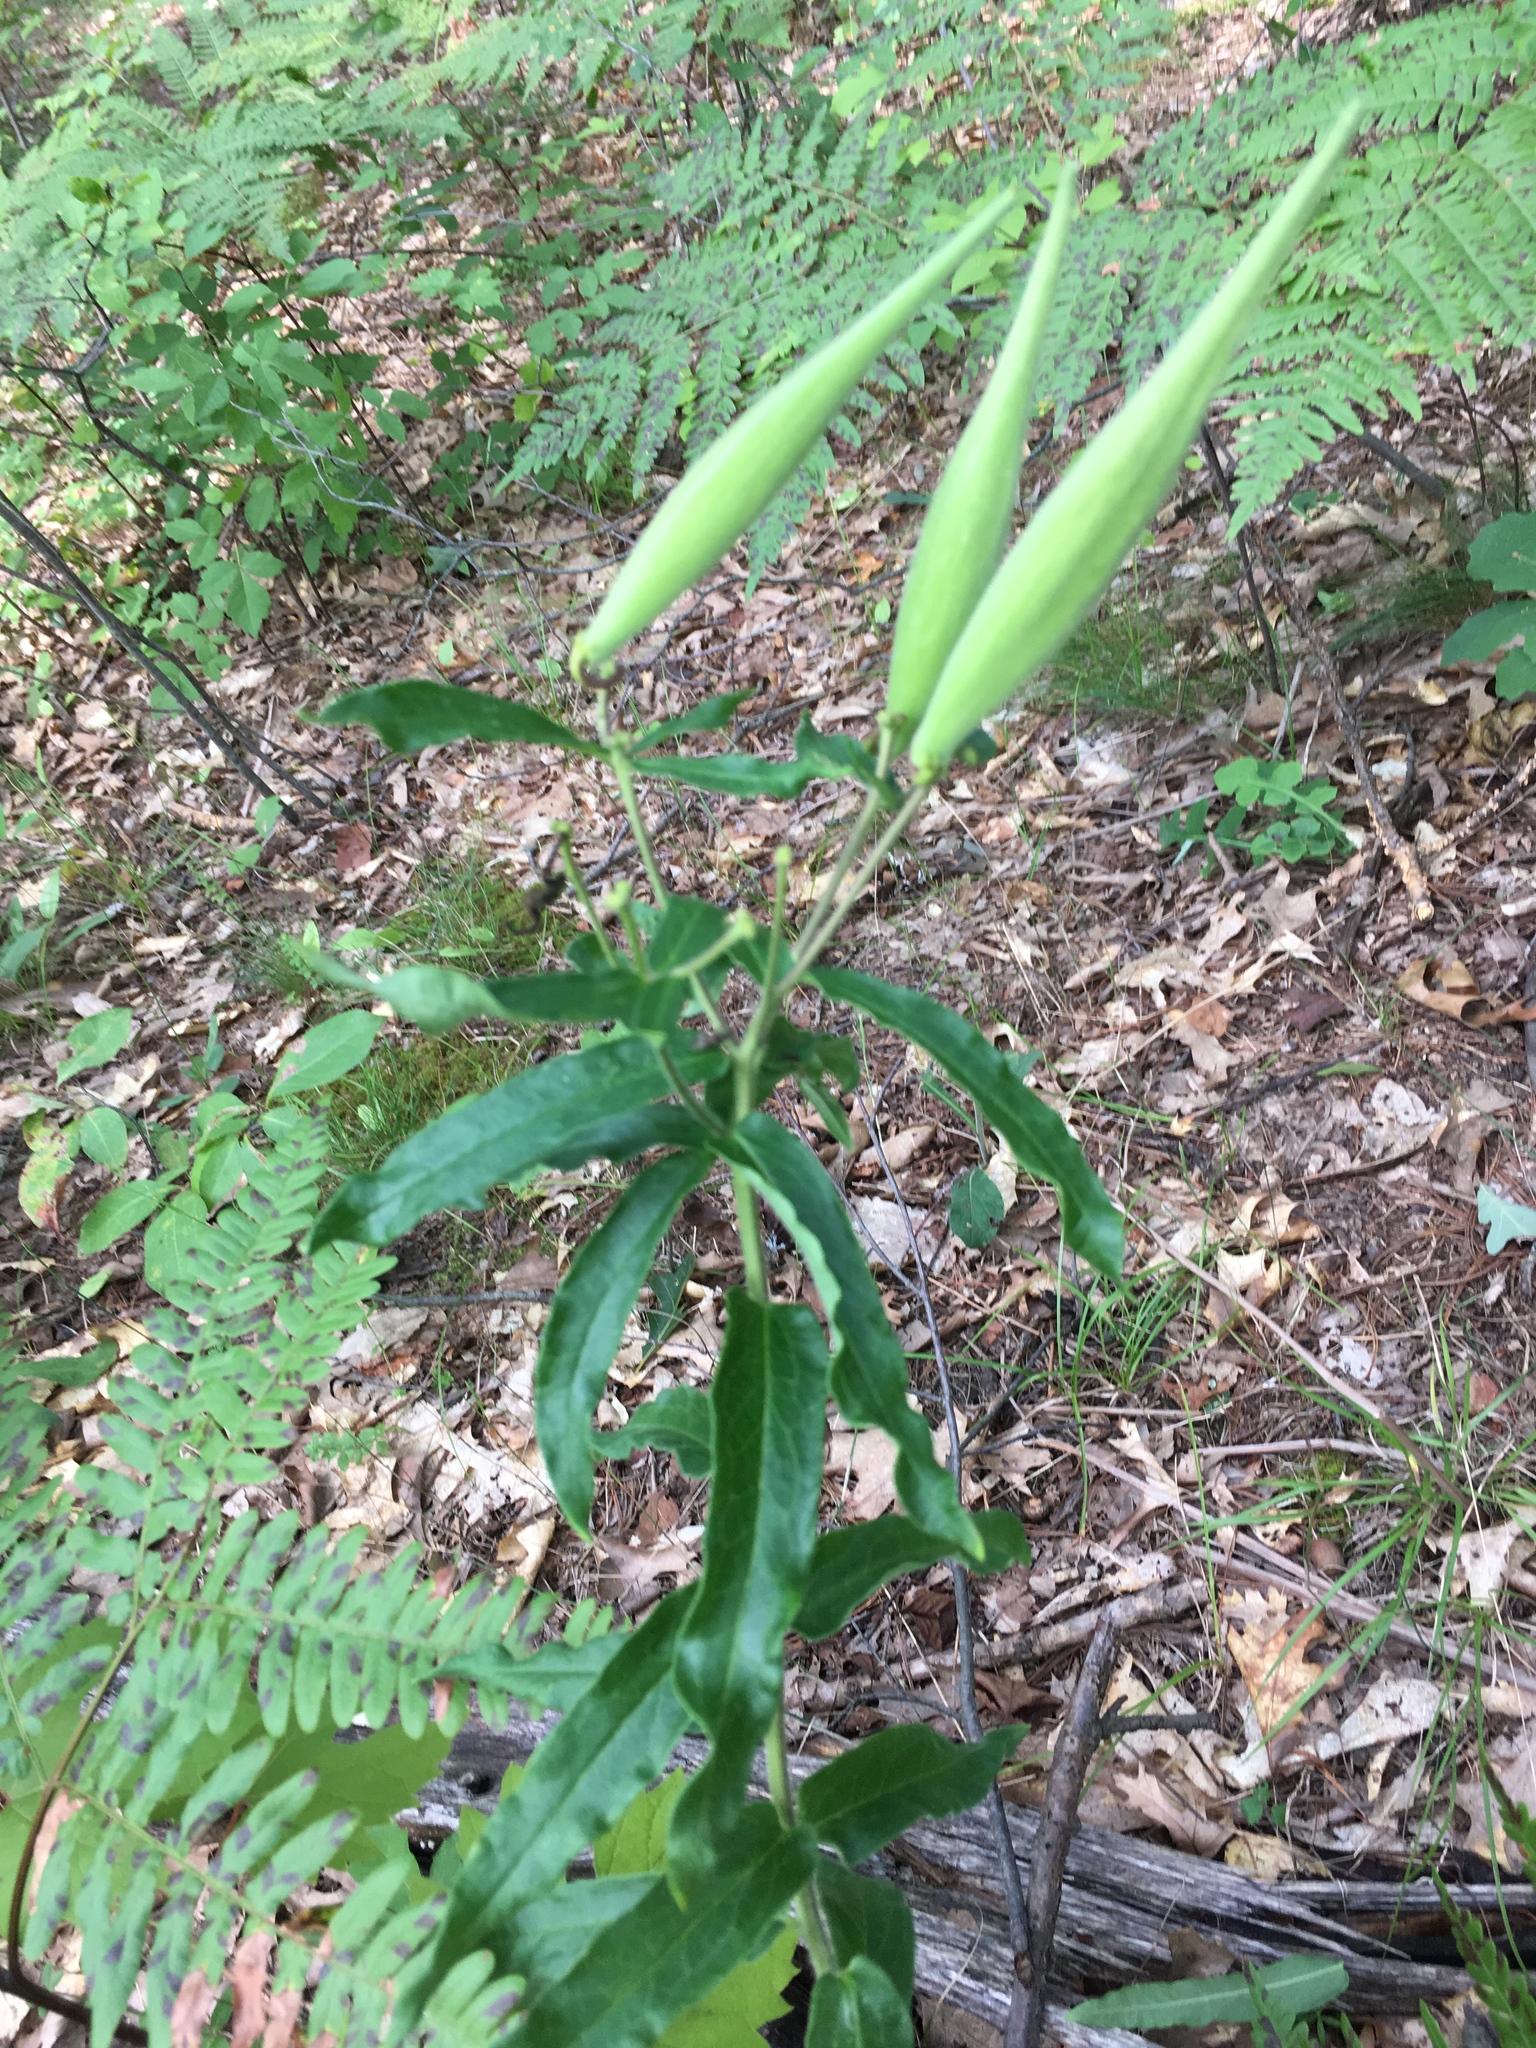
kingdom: Plantae
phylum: Tracheophyta
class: Magnoliopsida
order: Gentianales
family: Apocynaceae
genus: Asclepias
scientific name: Asclepias tuberosa
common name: Butterfly milkweed
